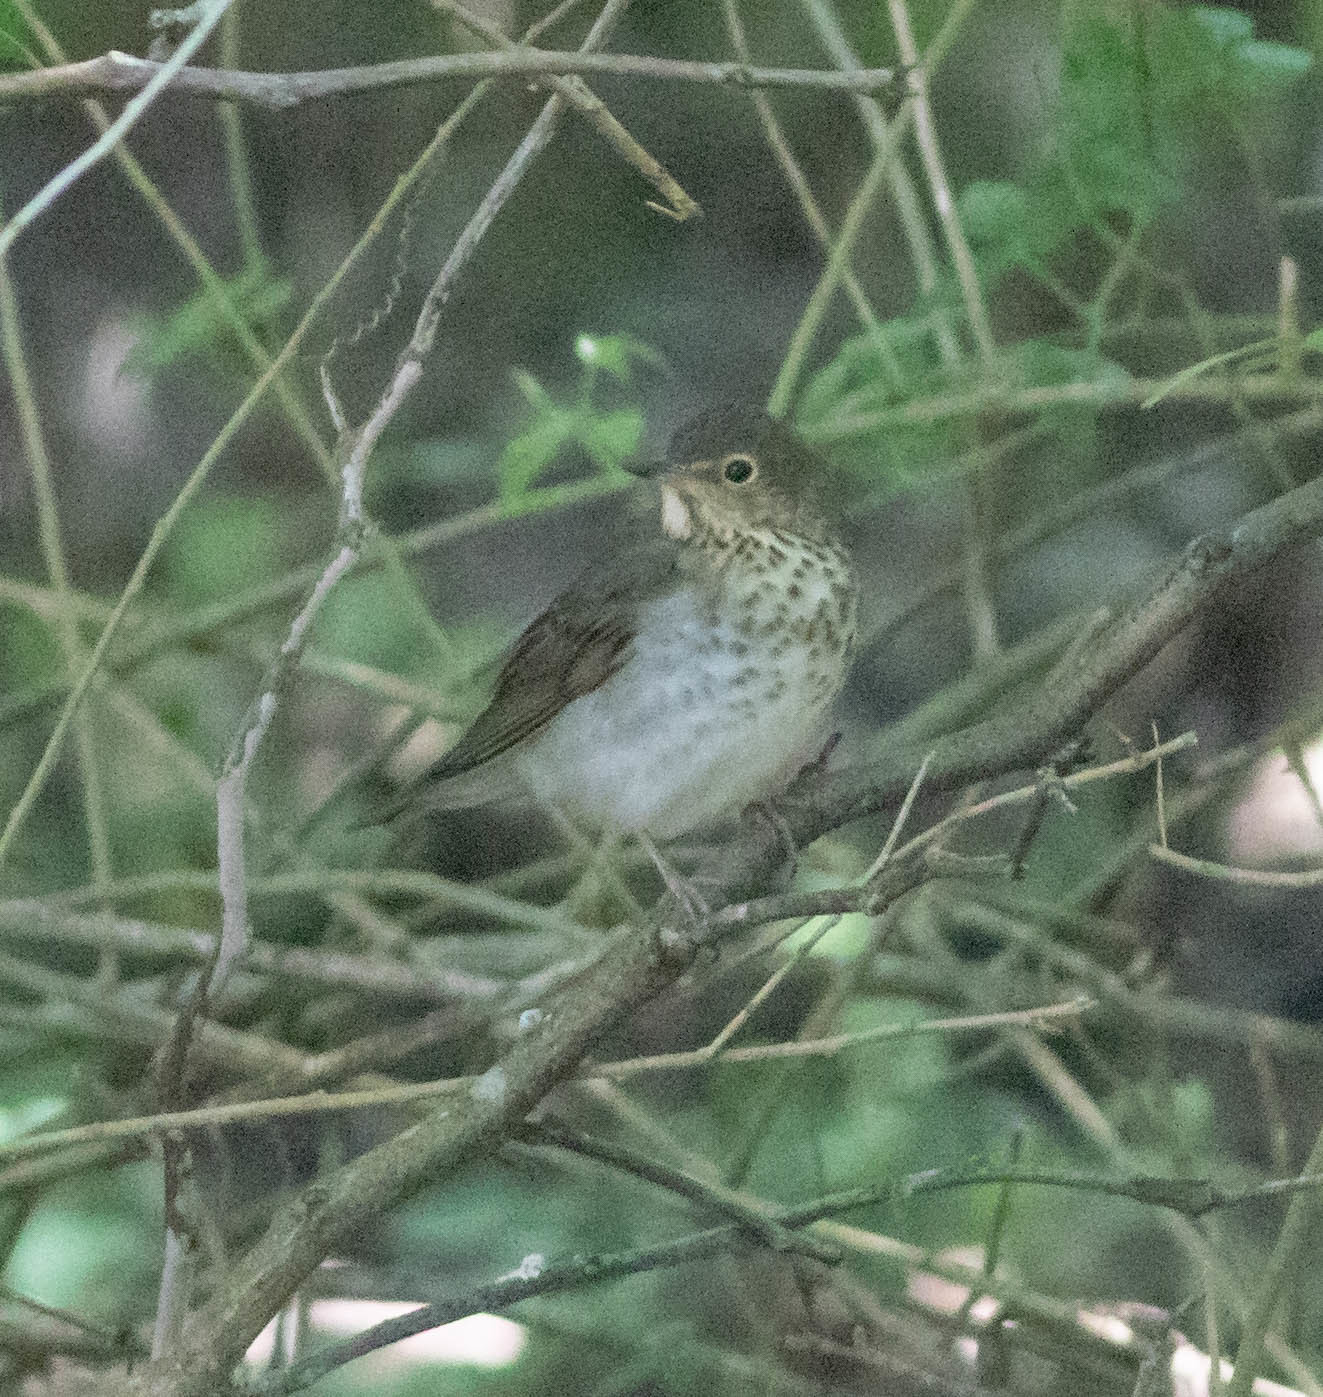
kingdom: Animalia
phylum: Chordata
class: Aves
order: Passeriformes
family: Turdidae
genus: Catharus
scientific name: Catharus ustulatus
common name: Swainson's thrush
